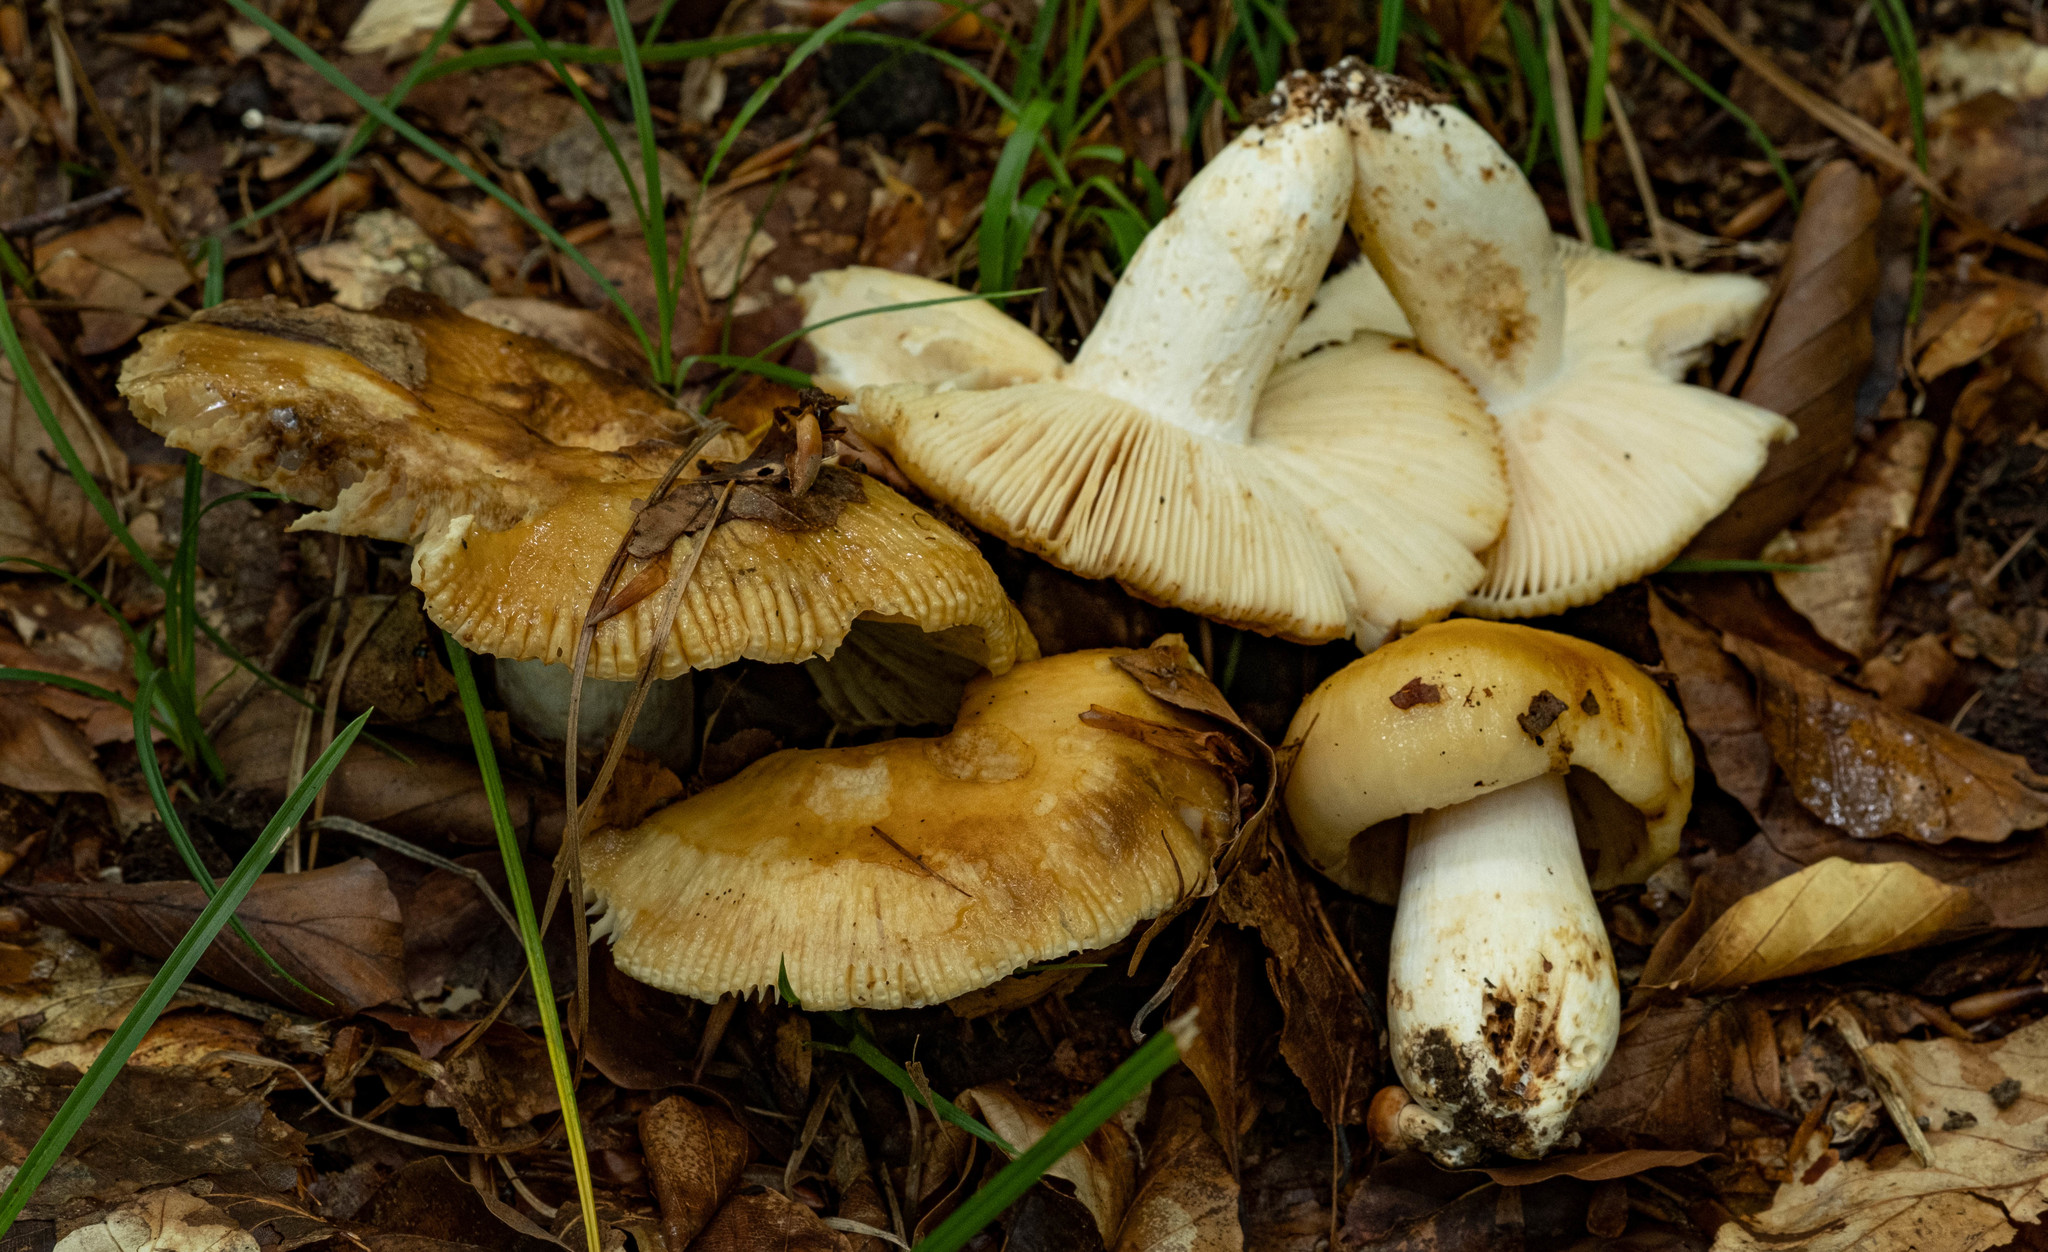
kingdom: Fungi
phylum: Basidiomycota
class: Agaricomycetes
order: Russulales
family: Russulaceae
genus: Russula
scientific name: Russula grata
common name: Bitter almond brittlegill
